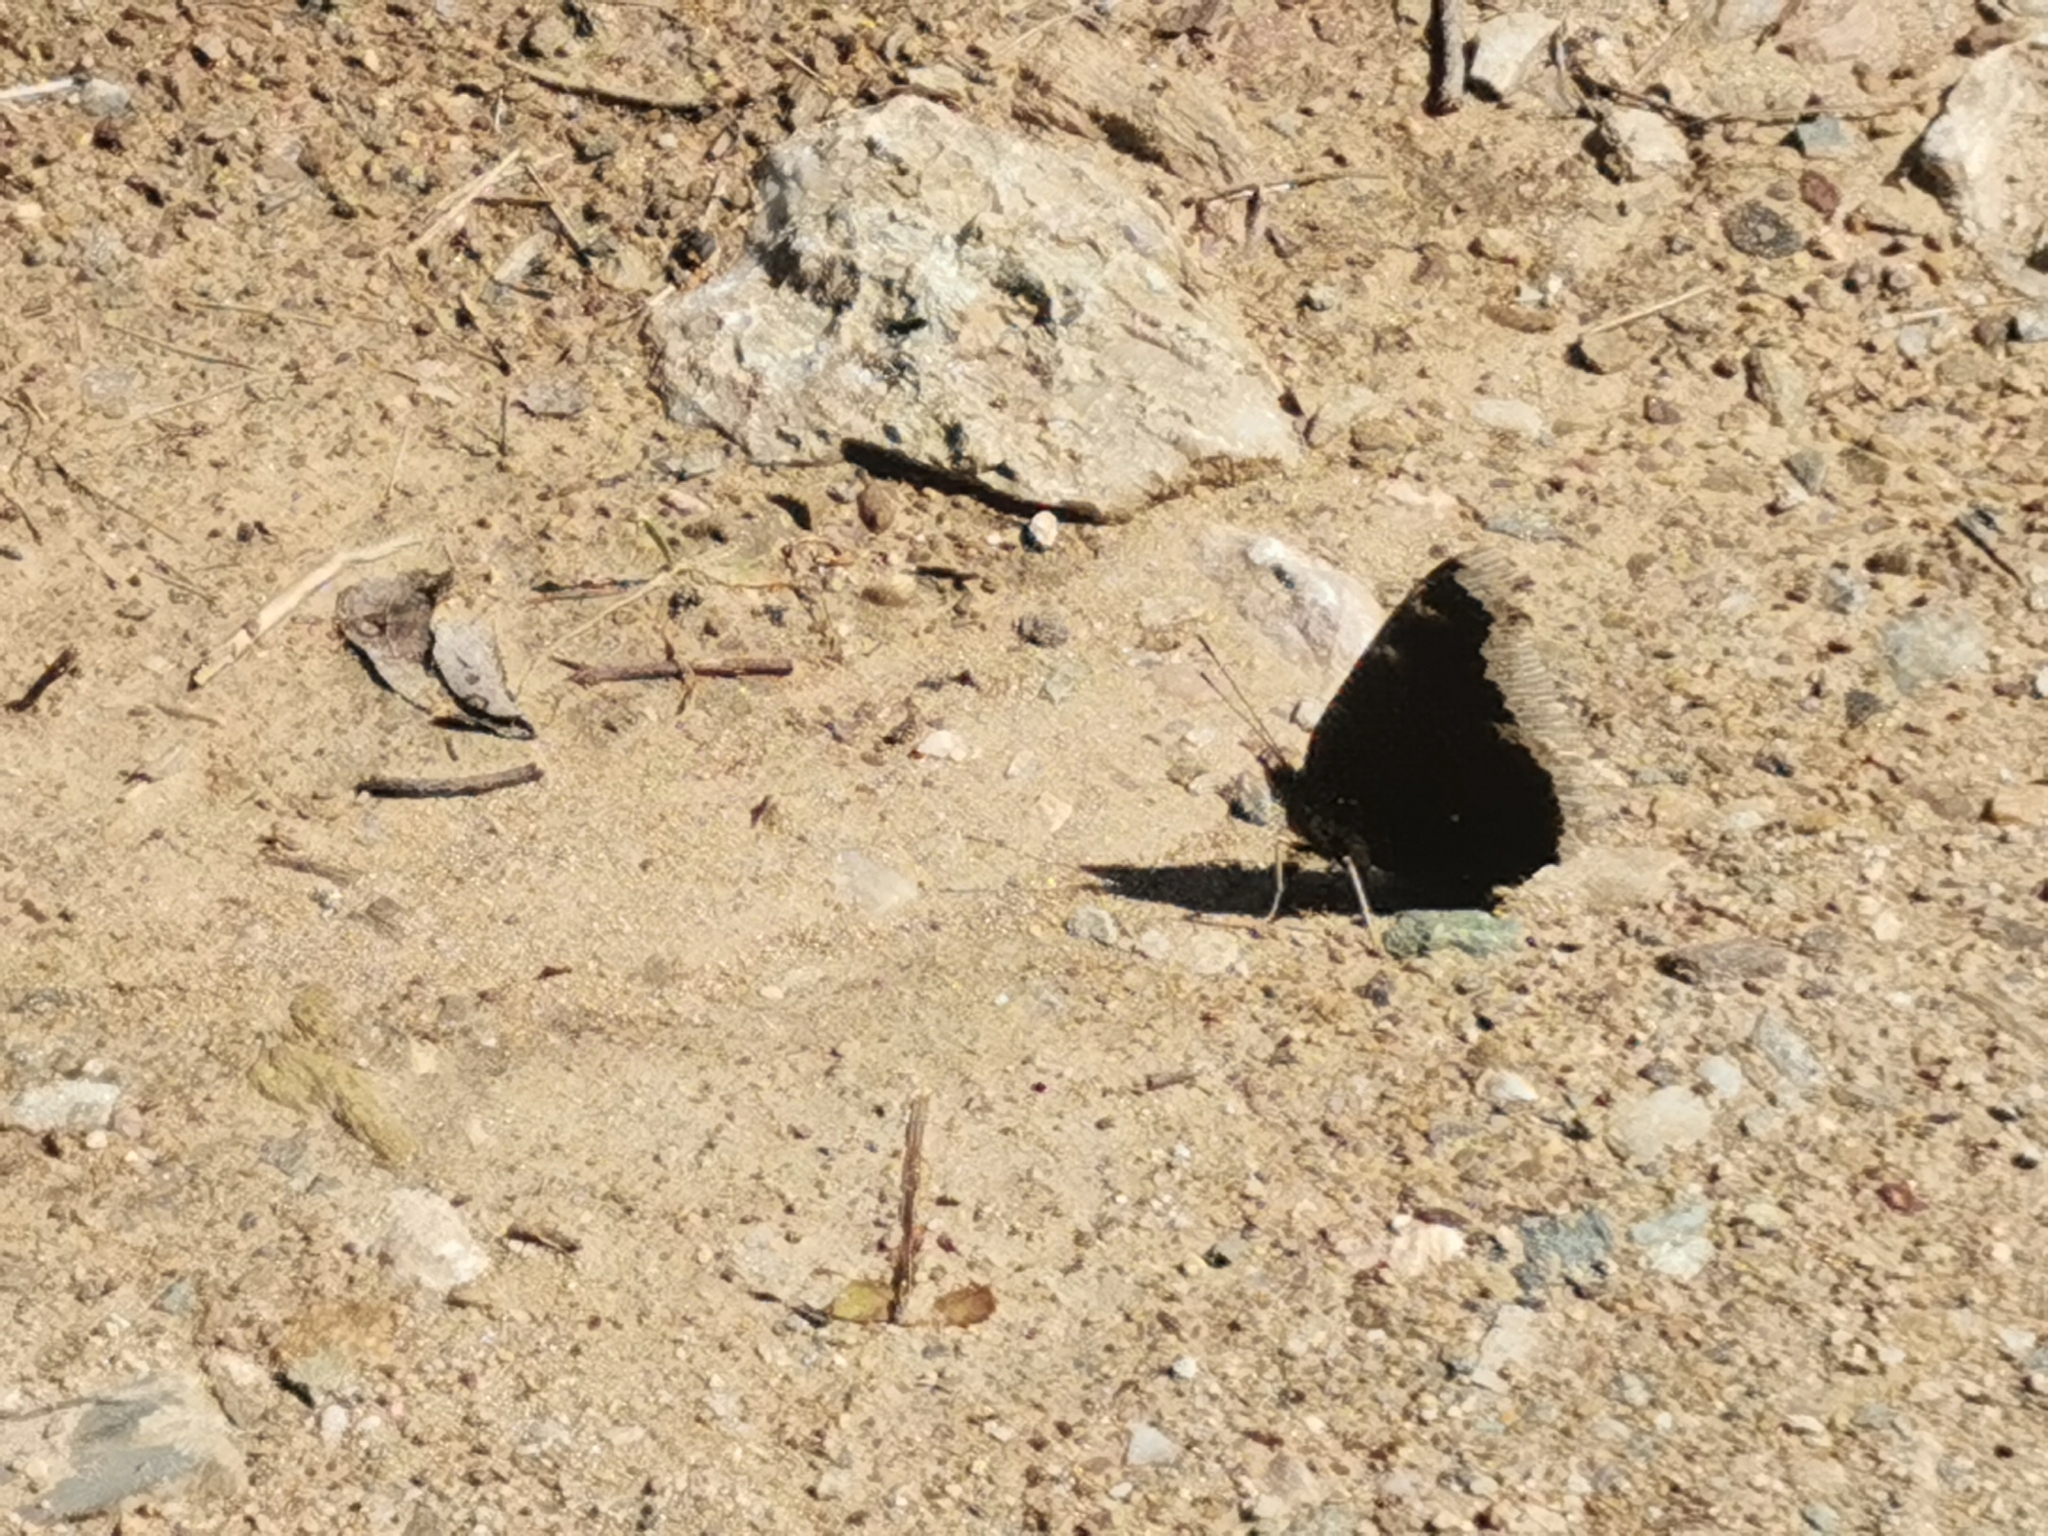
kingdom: Animalia
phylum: Arthropoda
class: Insecta
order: Lepidoptera
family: Nymphalidae
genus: Nymphalis
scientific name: Nymphalis antiopa
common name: Camberwell beauty
